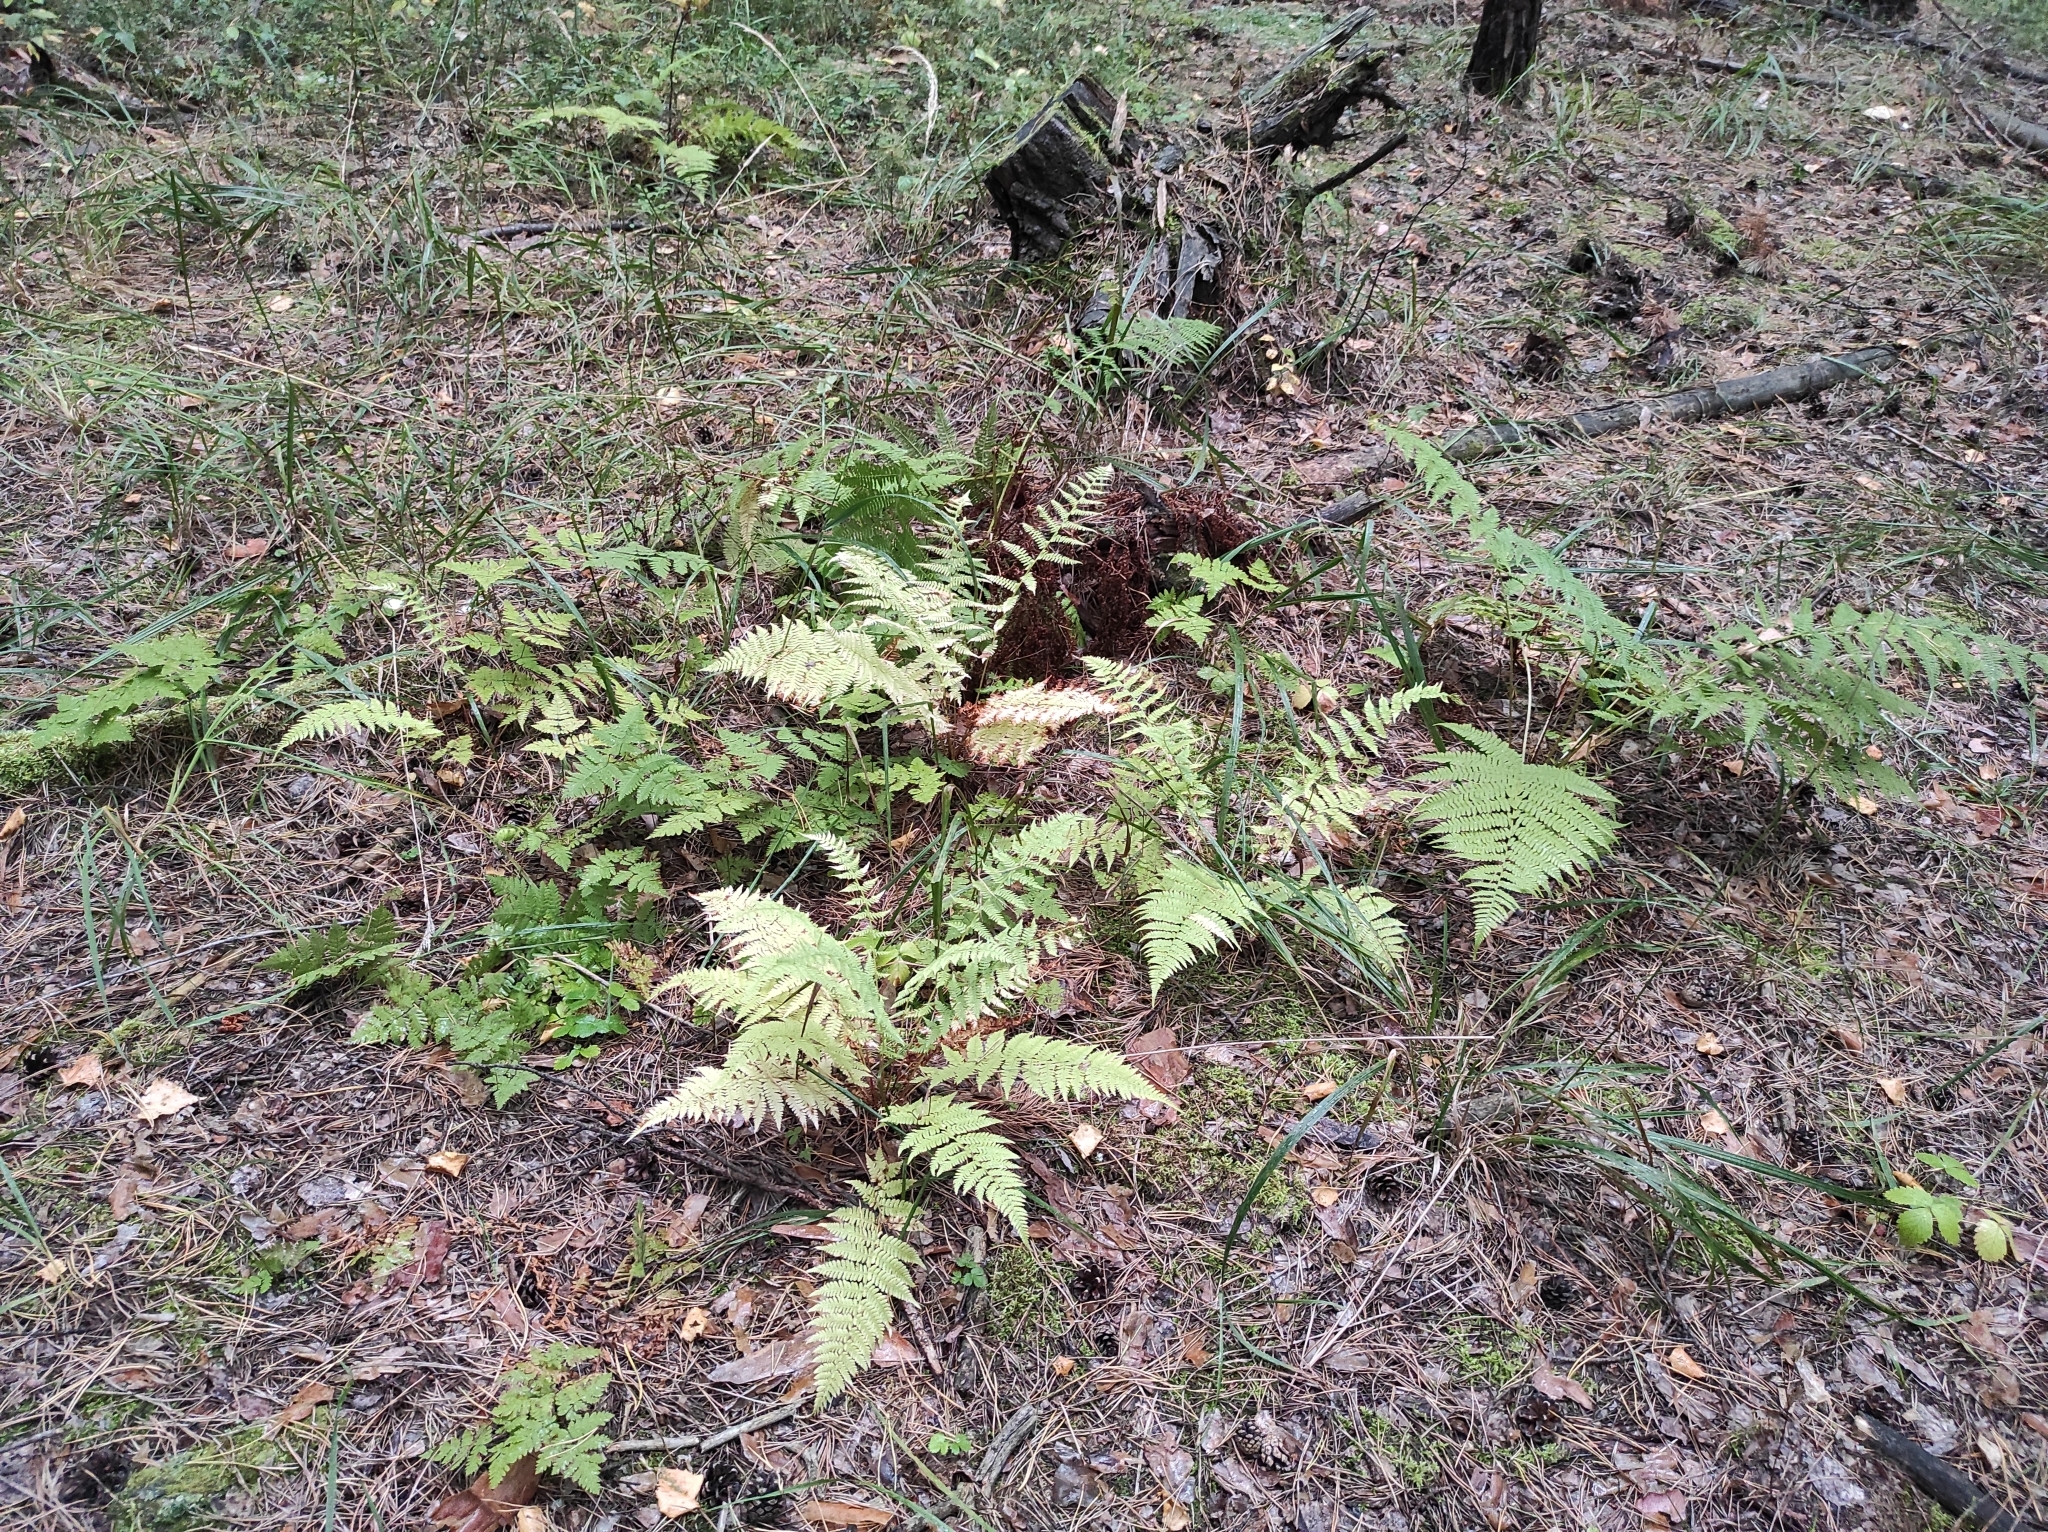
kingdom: Plantae
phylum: Tracheophyta
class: Polypodiopsida
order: Polypodiales
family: Athyriaceae
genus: Athyrium
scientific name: Athyrium filix-femina
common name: Lady fern
